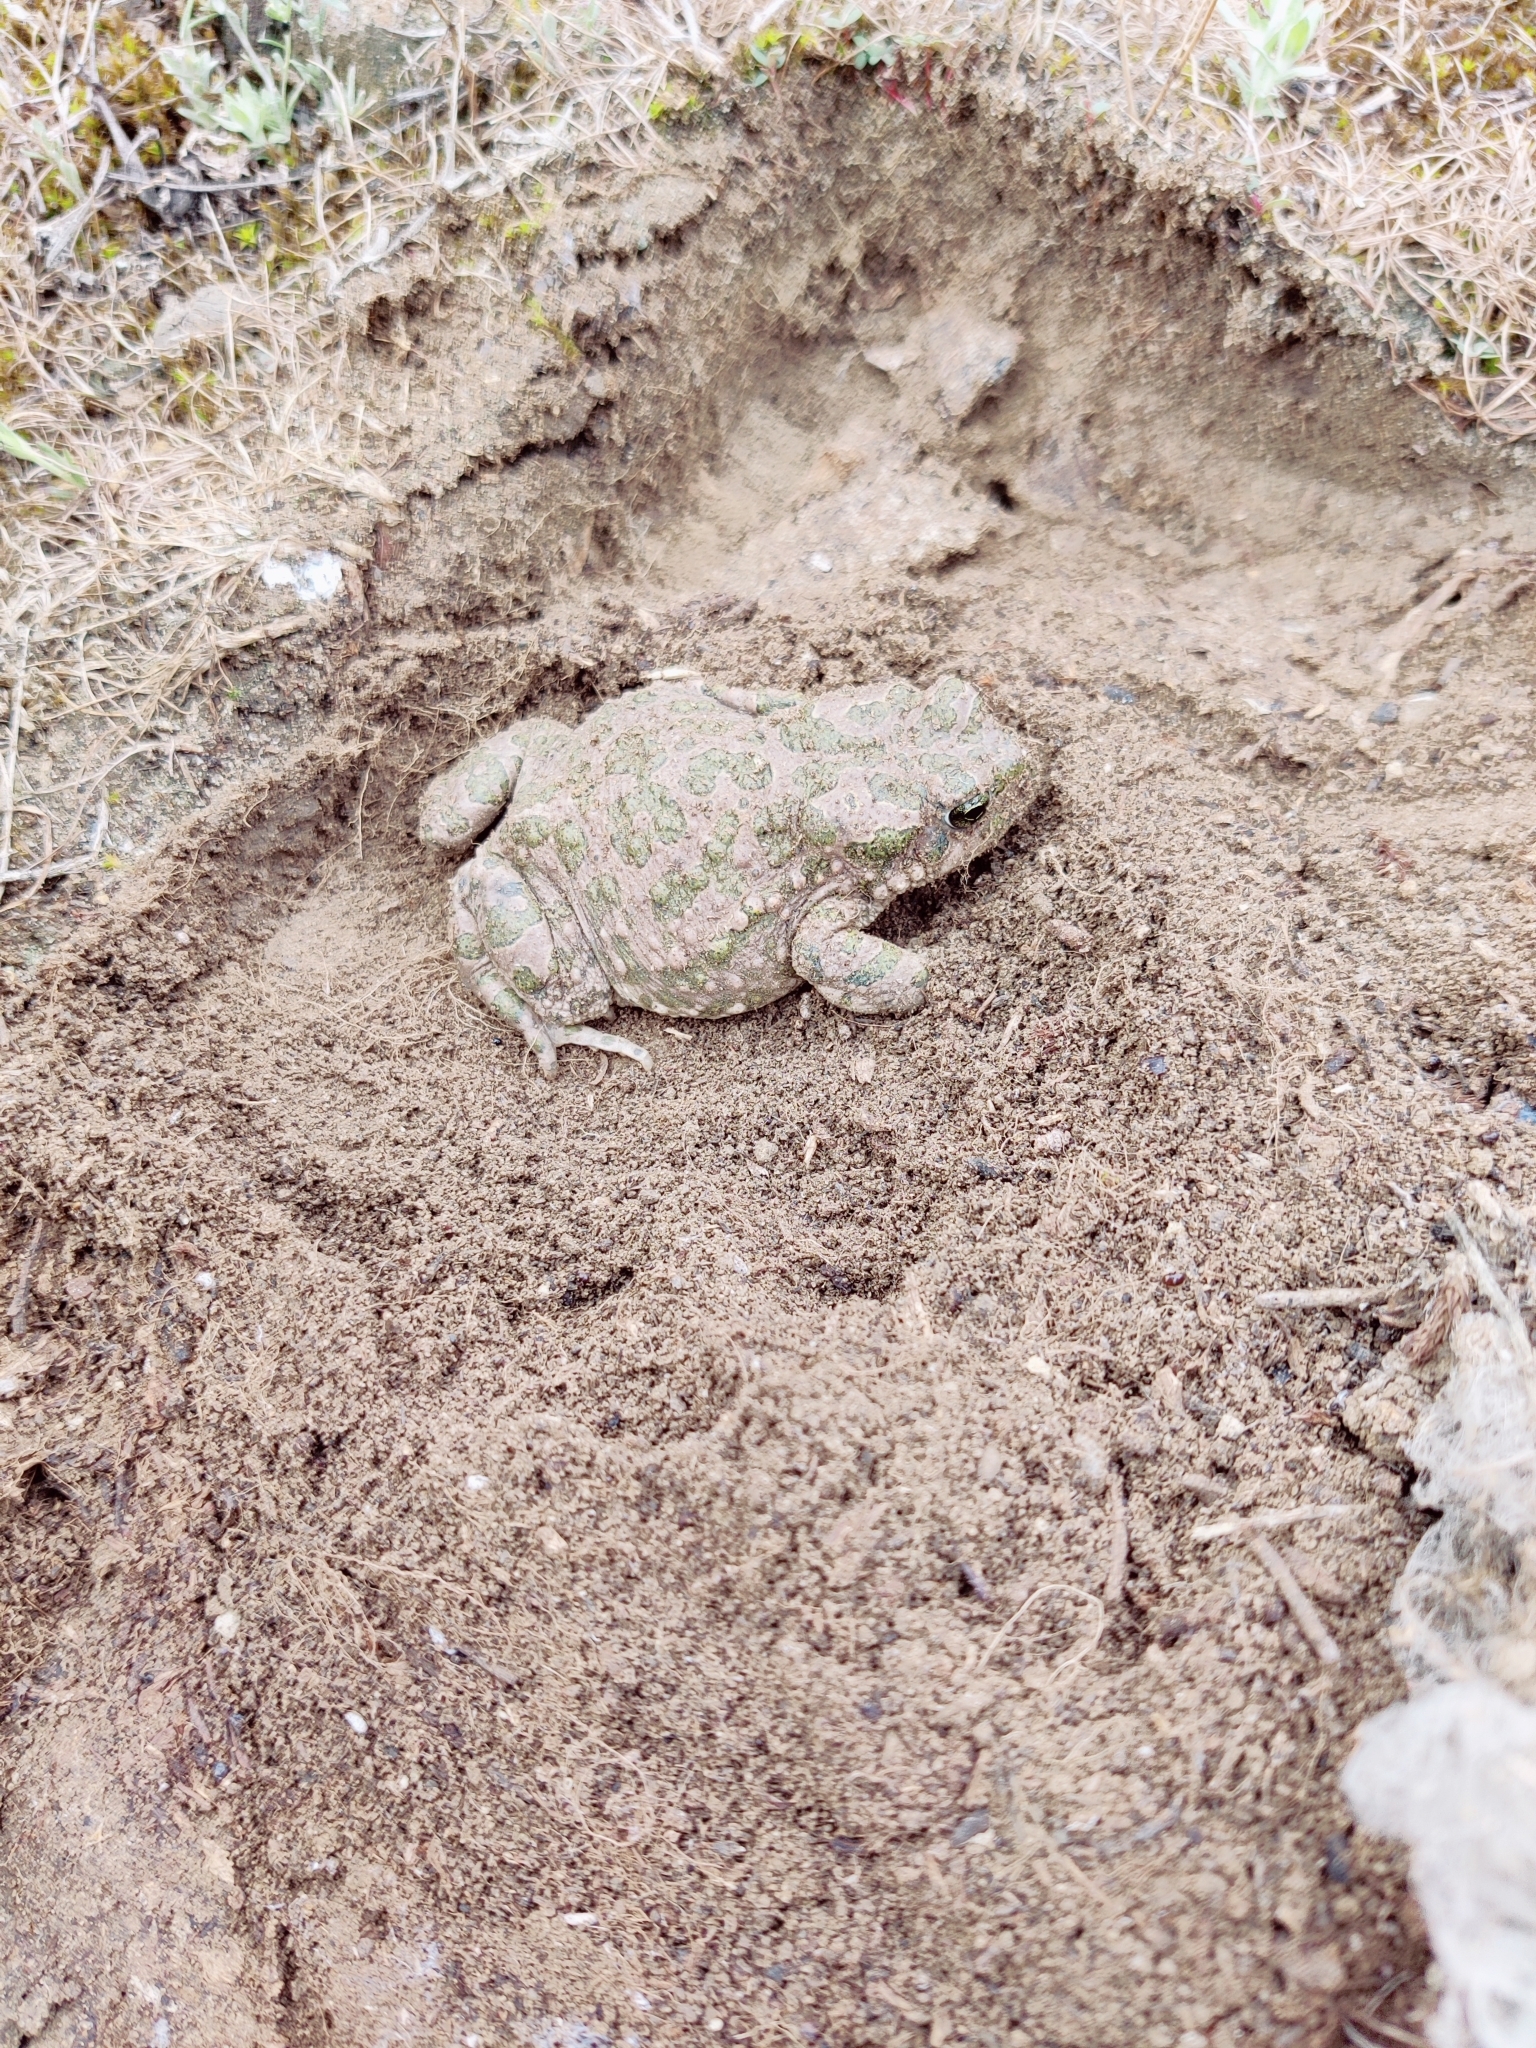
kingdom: Animalia
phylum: Chordata
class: Amphibia
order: Anura
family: Bufonidae
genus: Bufotes
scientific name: Bufotes viridis
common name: European green toad
